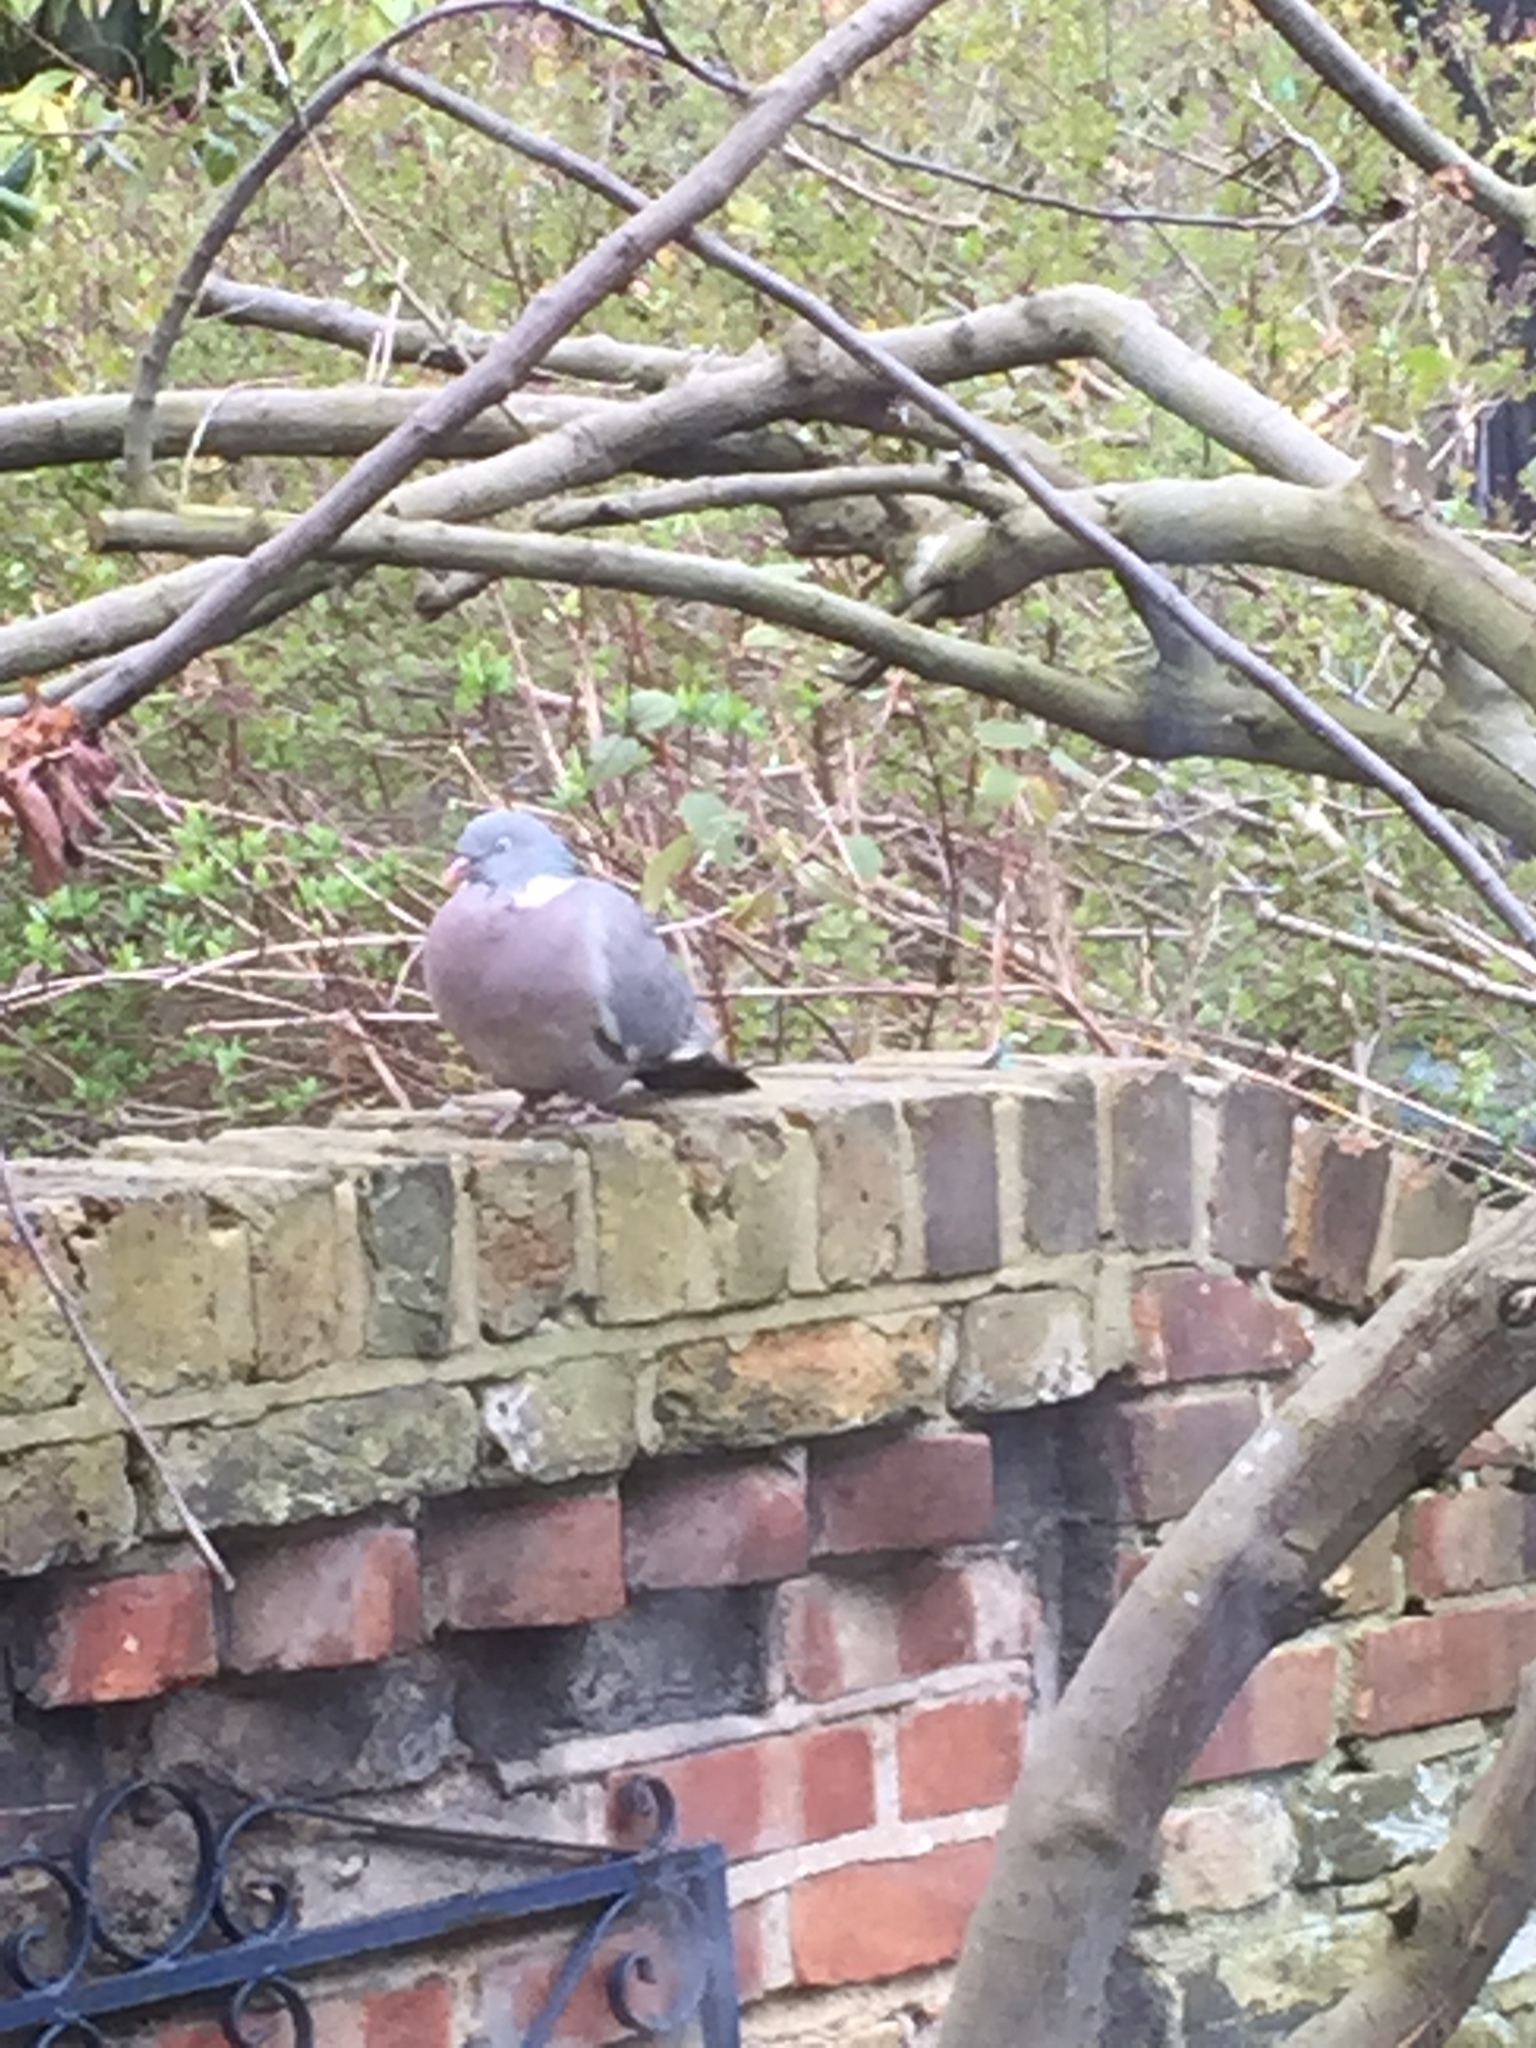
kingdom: Animalia
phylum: Chordata
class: Aves
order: Columbiformes
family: Columbidae
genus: Columba
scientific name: Columba palumbus
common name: Common wood pigeon
